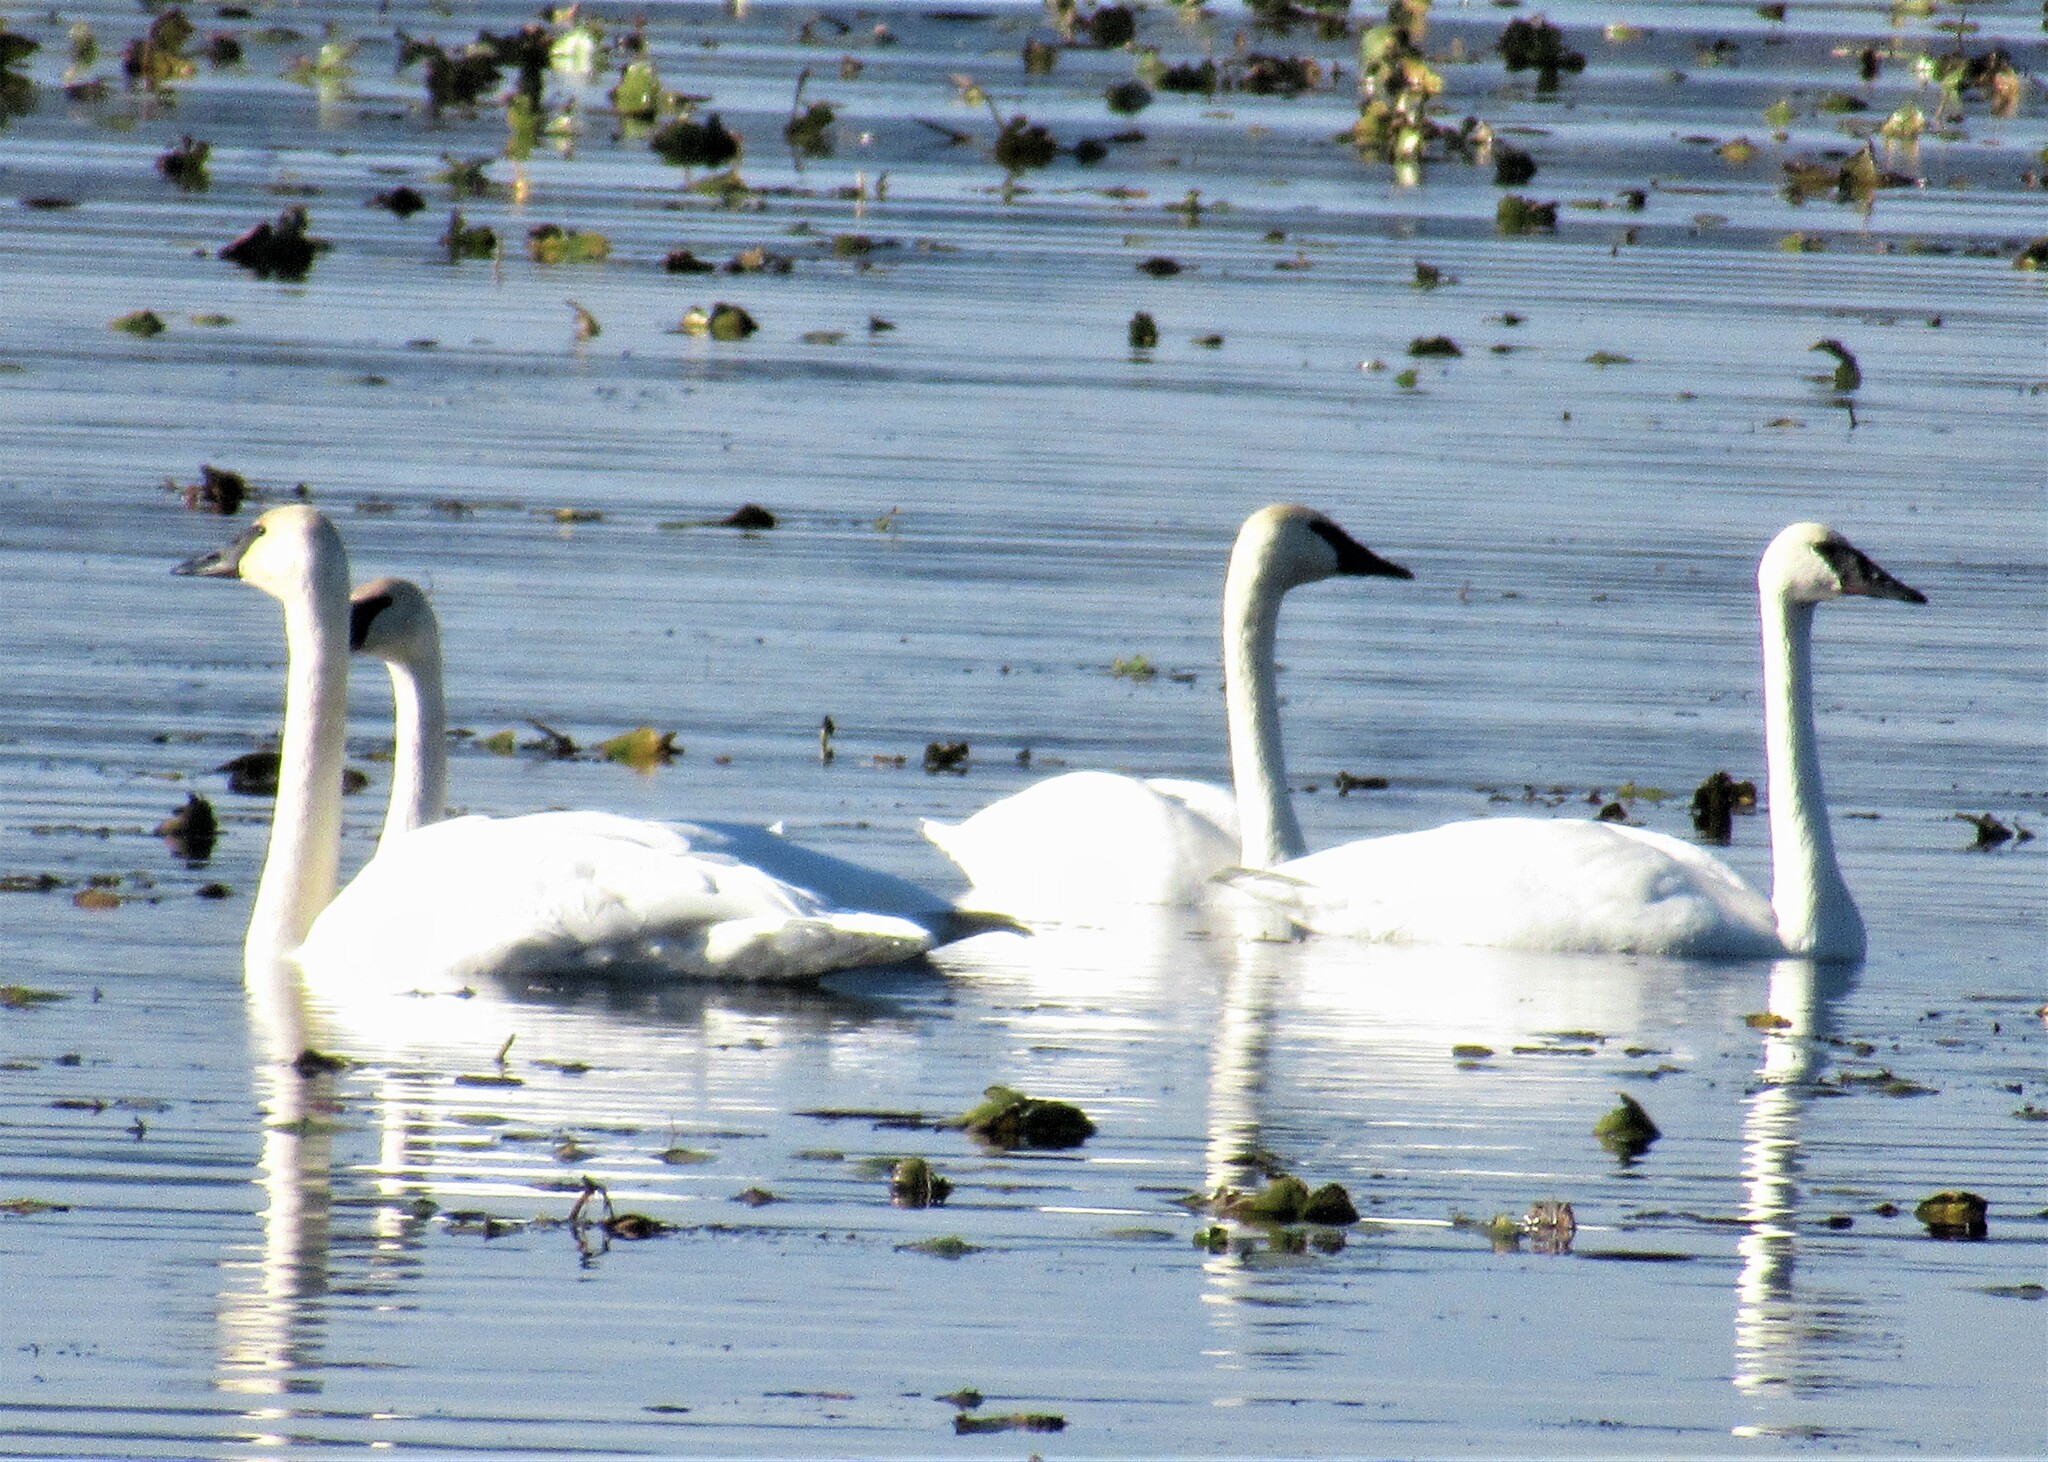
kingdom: Animalia
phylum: Chordata
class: Aves
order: Anseriformes
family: Anatidae
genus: Cygnus
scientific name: Cygnus buccinator
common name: Trumpeter swan
